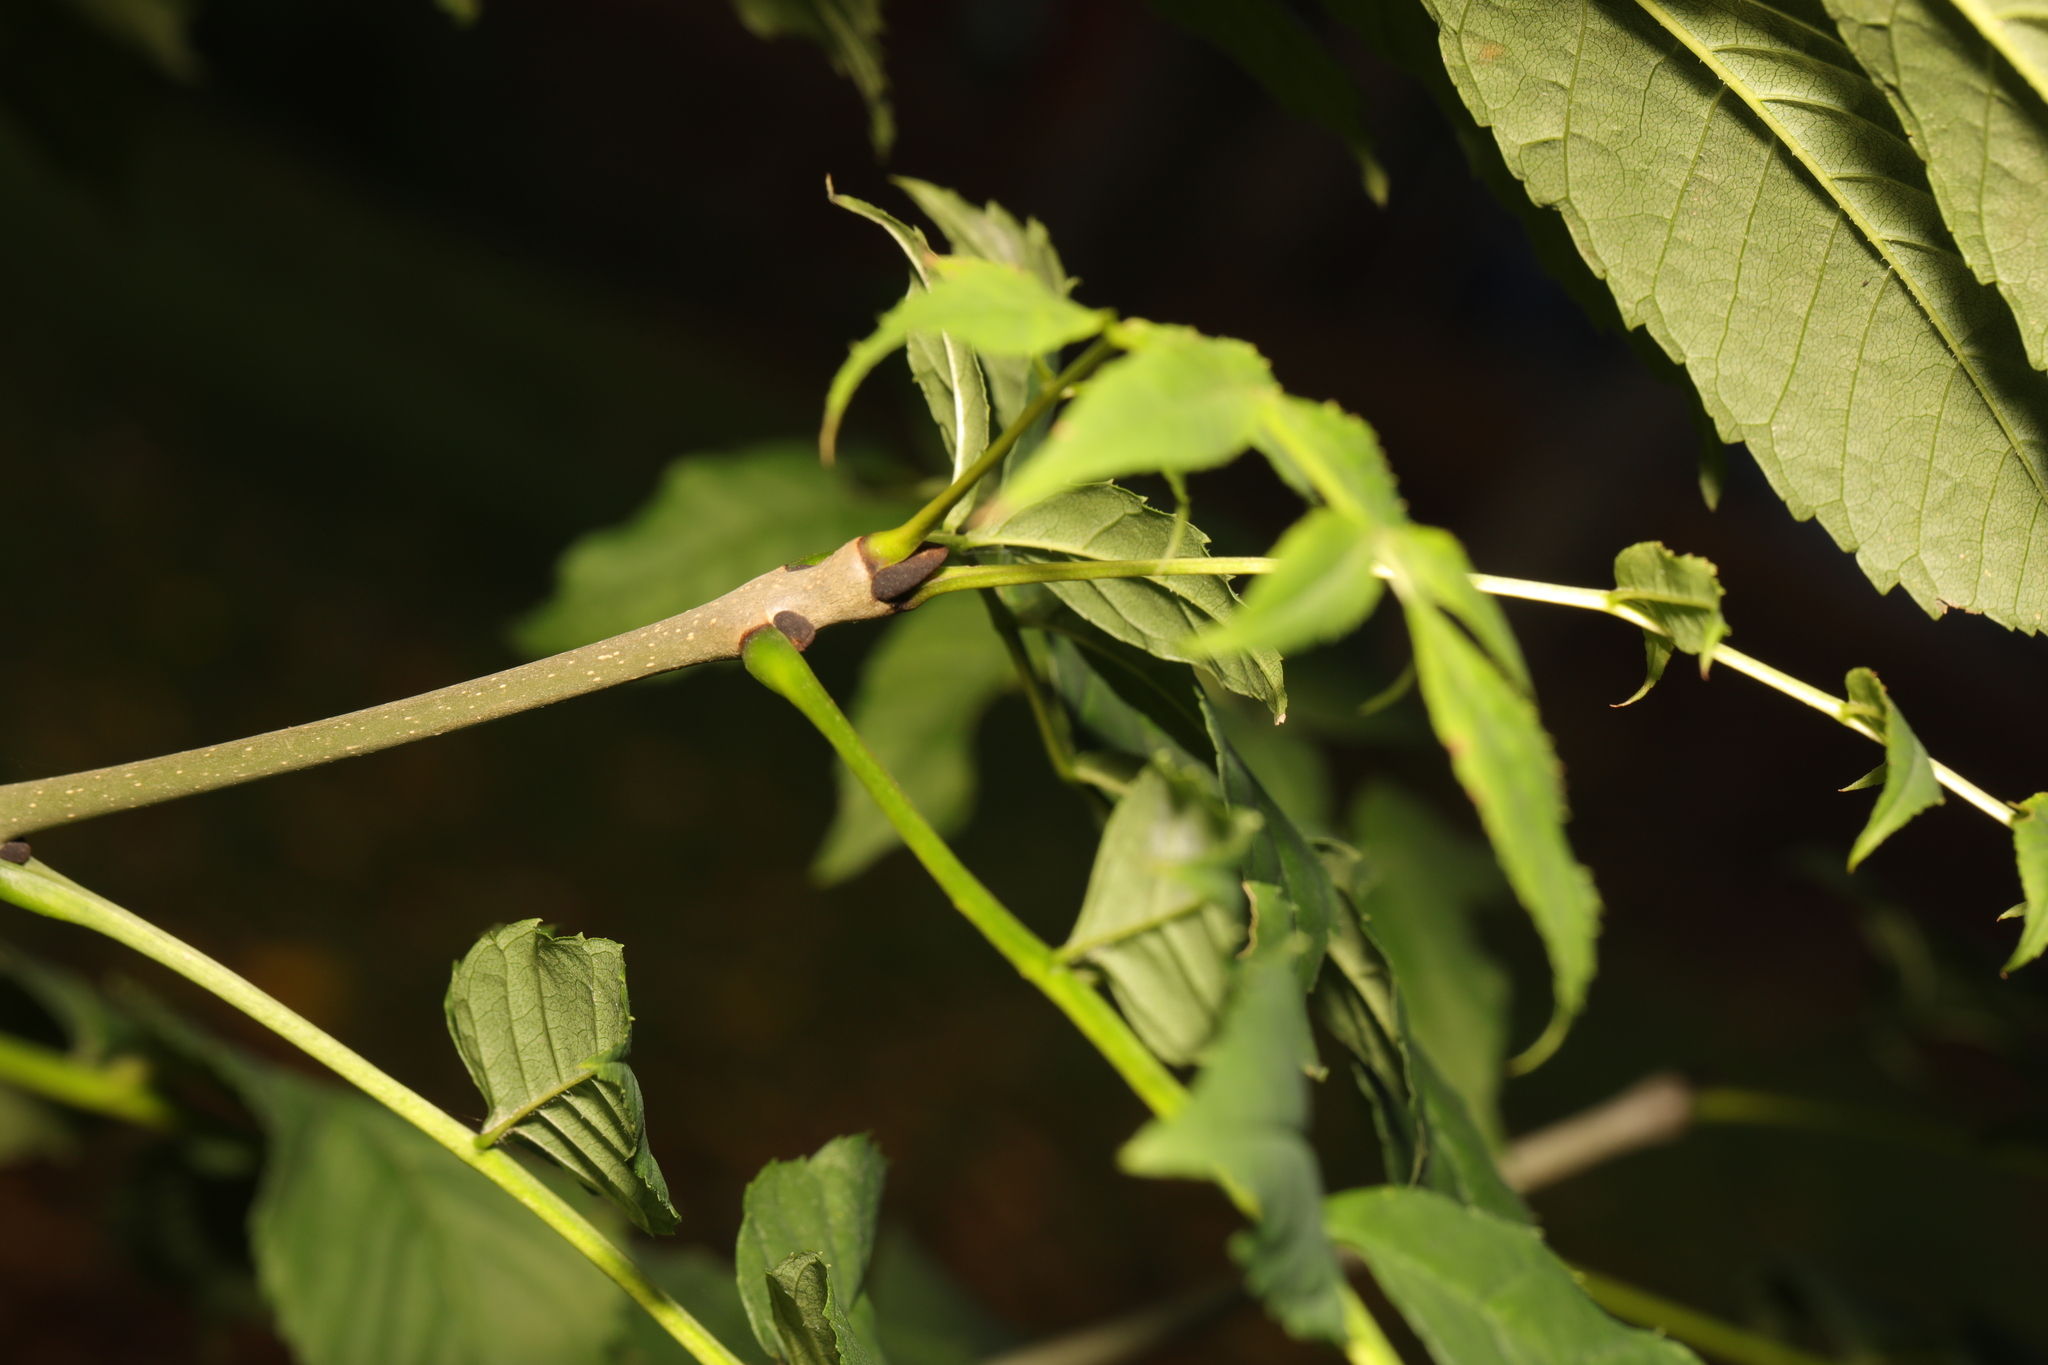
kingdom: Plantae
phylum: Tracheophyta
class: Magnoliopsida
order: Lamiales
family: Oleaceae
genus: Fraxinus
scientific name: Fraxinus excelsior
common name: European ash
